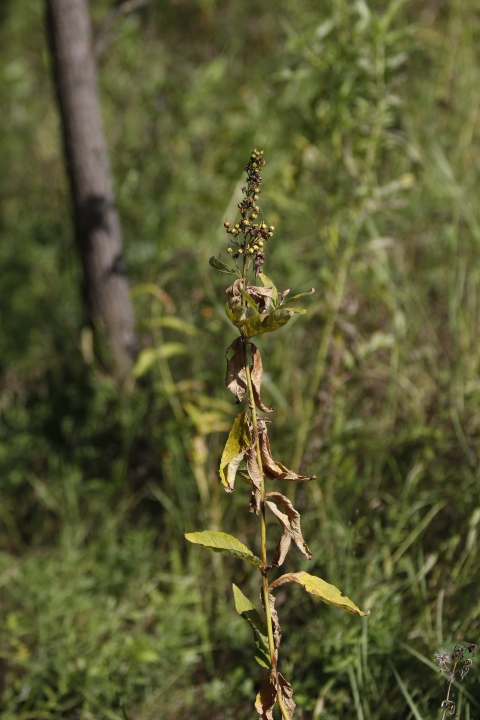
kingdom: Plantae
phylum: Tracheophyta
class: Magnoliopsida
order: Ericales
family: Primulaceae
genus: Lysimachia
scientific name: Lysimachia vulgaris
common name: Yellow loosestrife
